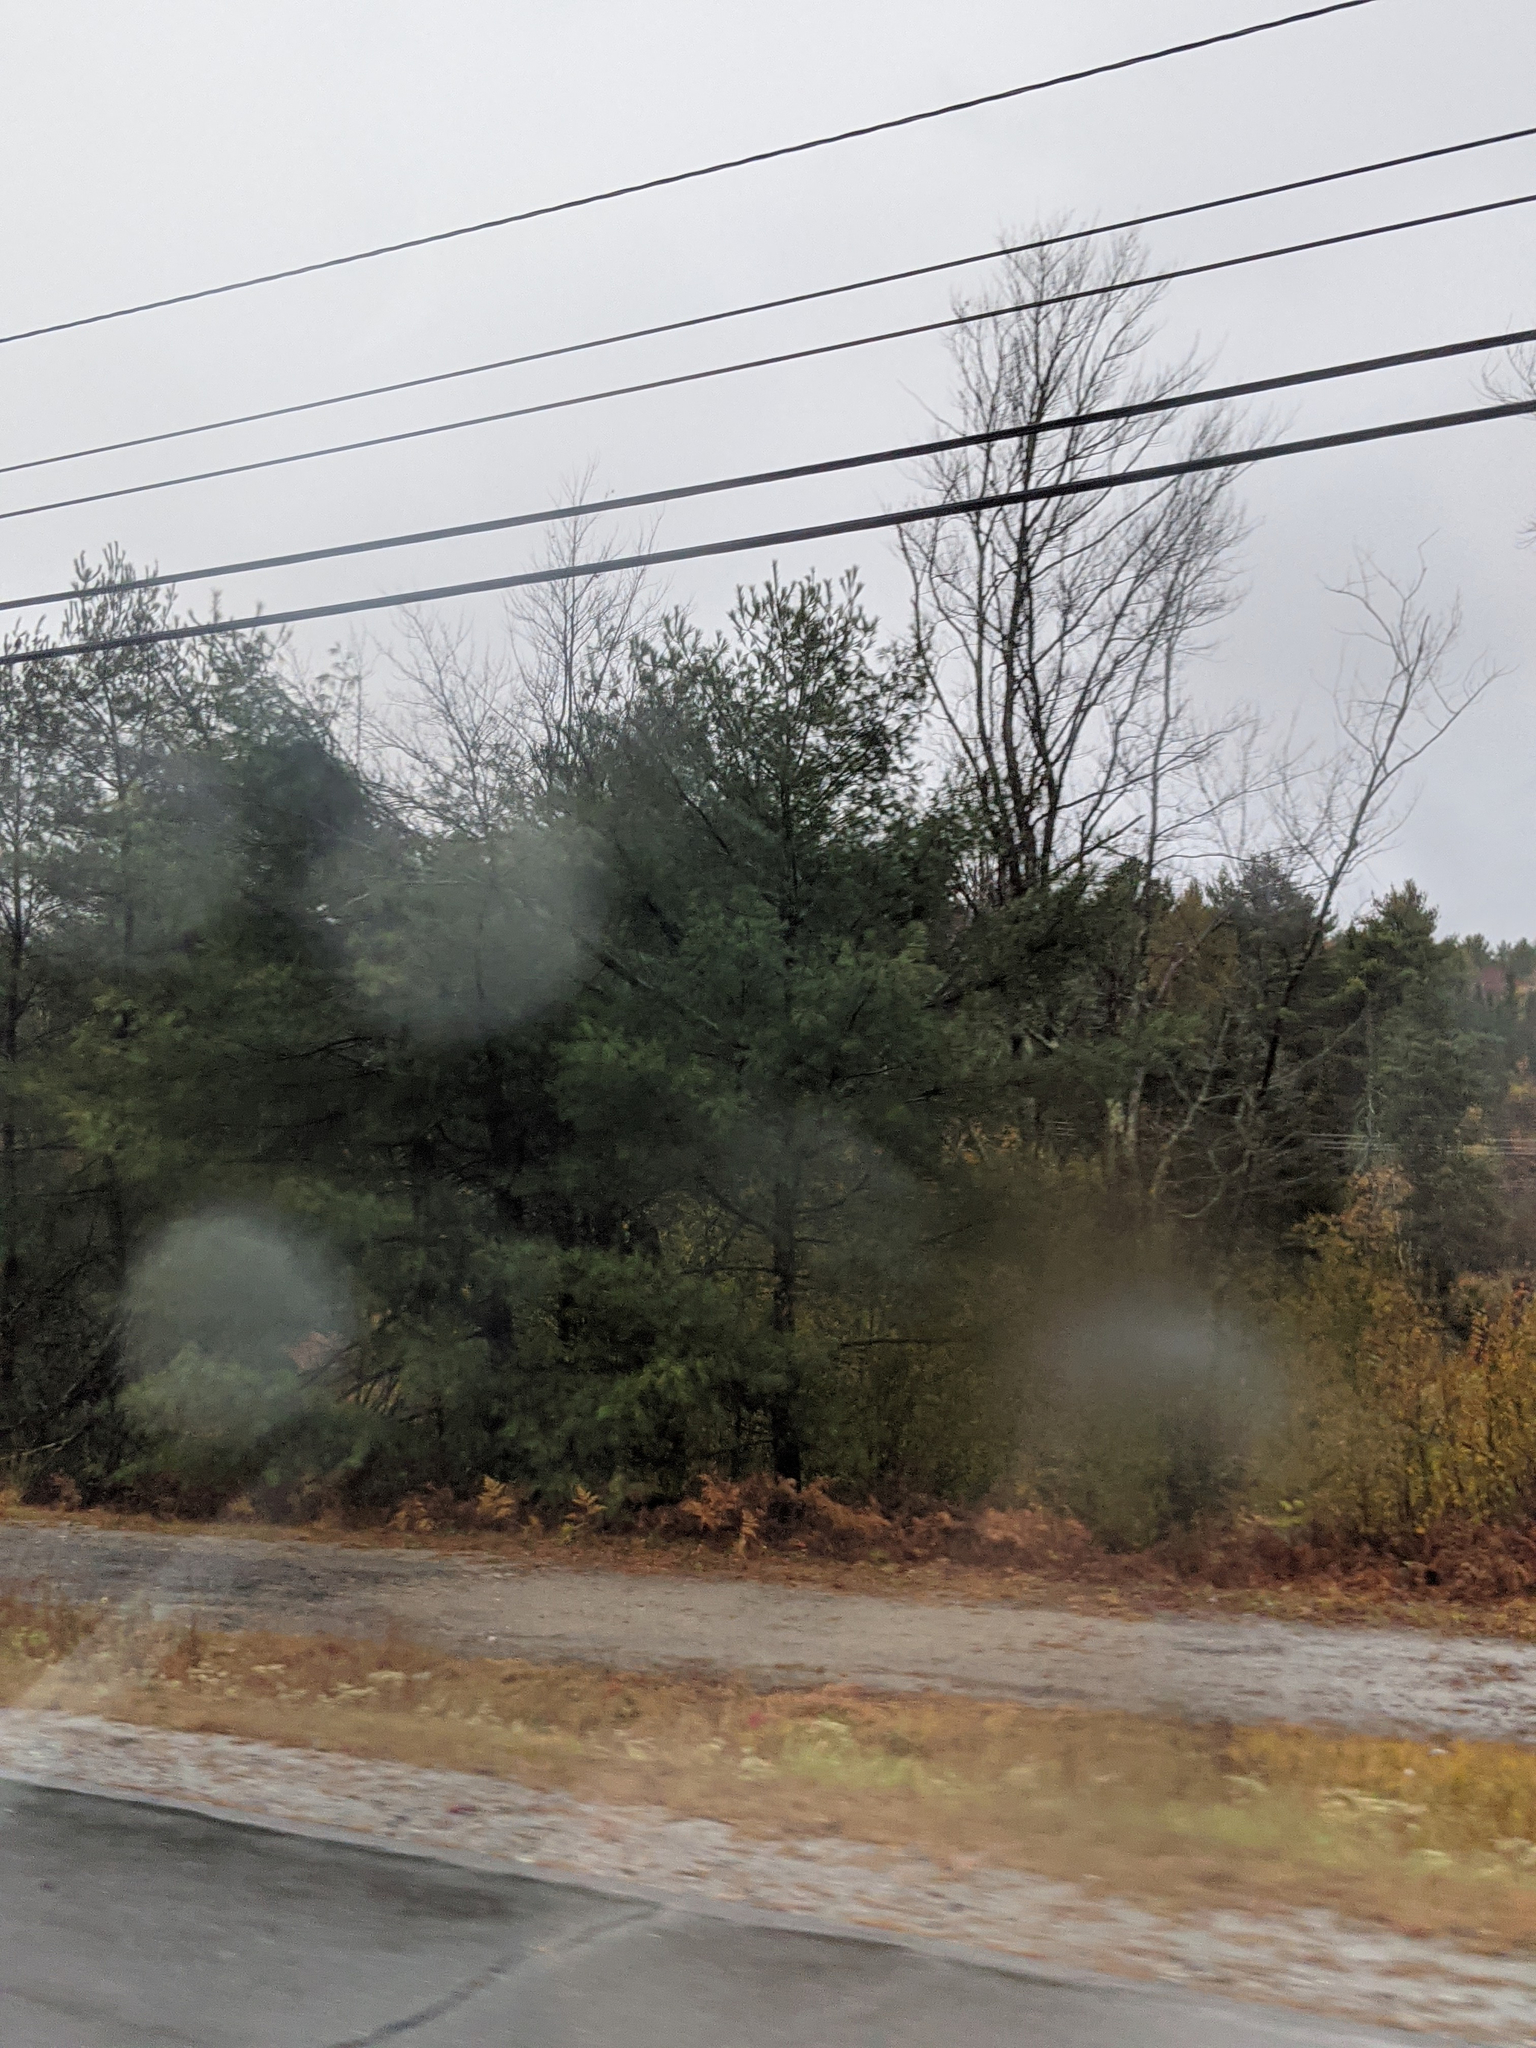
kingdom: Plantae
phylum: Tracheophyta
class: Pinopsida
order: Pinales
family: Pinaceae
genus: Pinus
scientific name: Pinus strobus
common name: Weymouth pine
